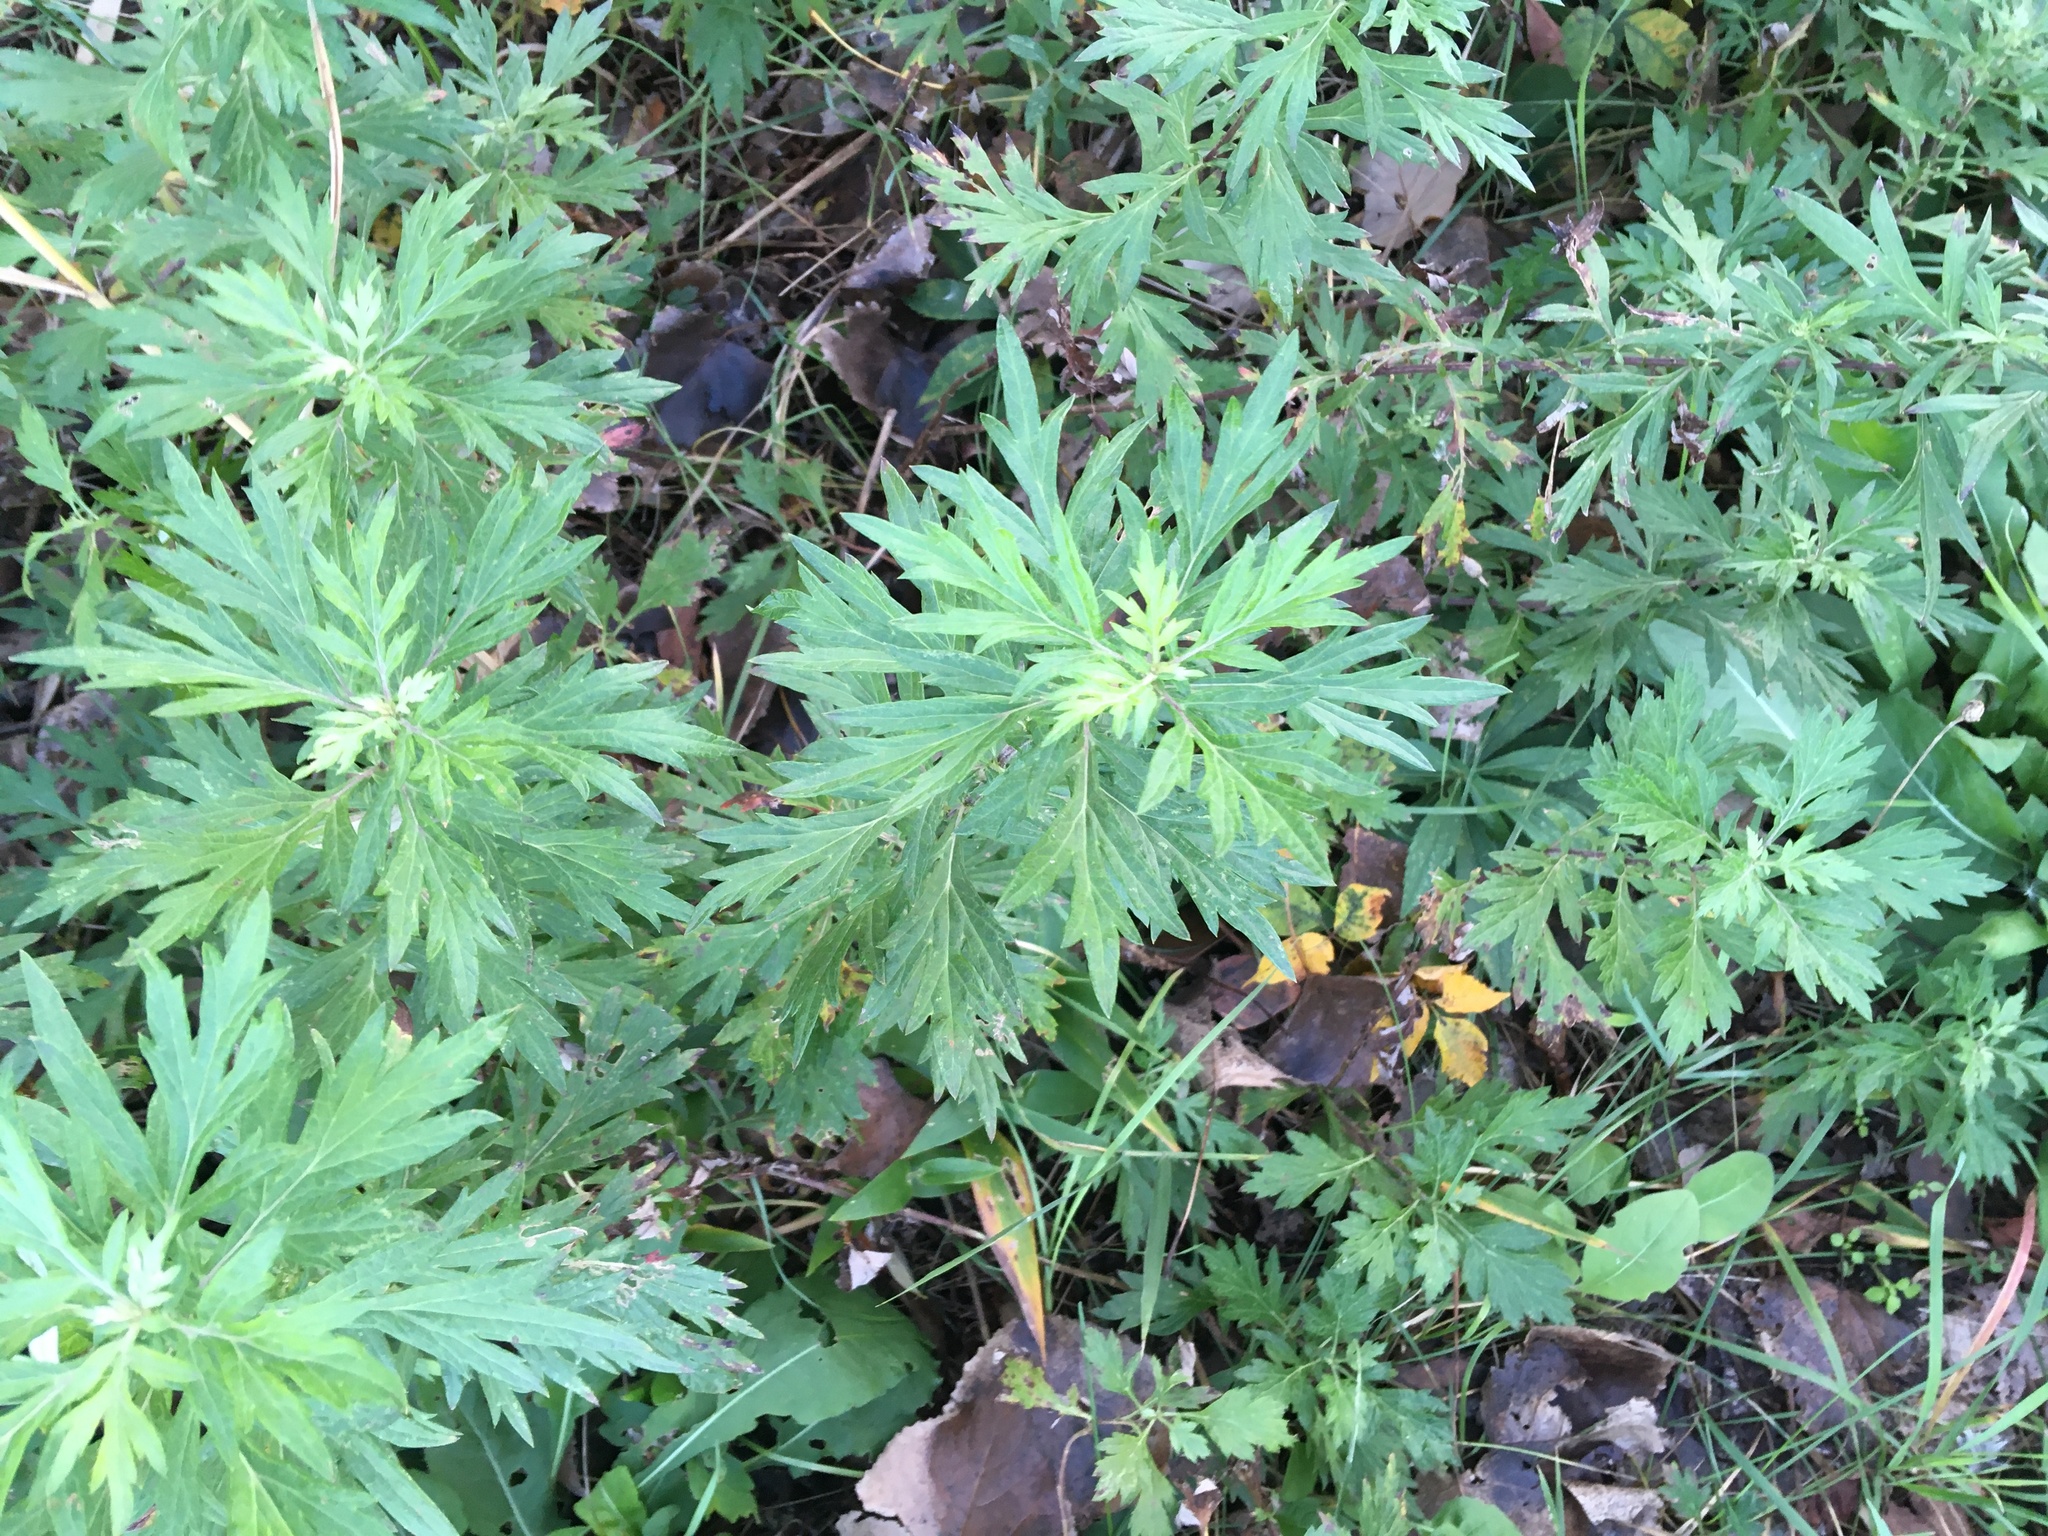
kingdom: Plantae
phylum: Tracheophyta
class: Magnoliopsida
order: Asterales
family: Asteraceae
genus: Artemisia
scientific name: Artemisia vulgaris
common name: Mugwort
